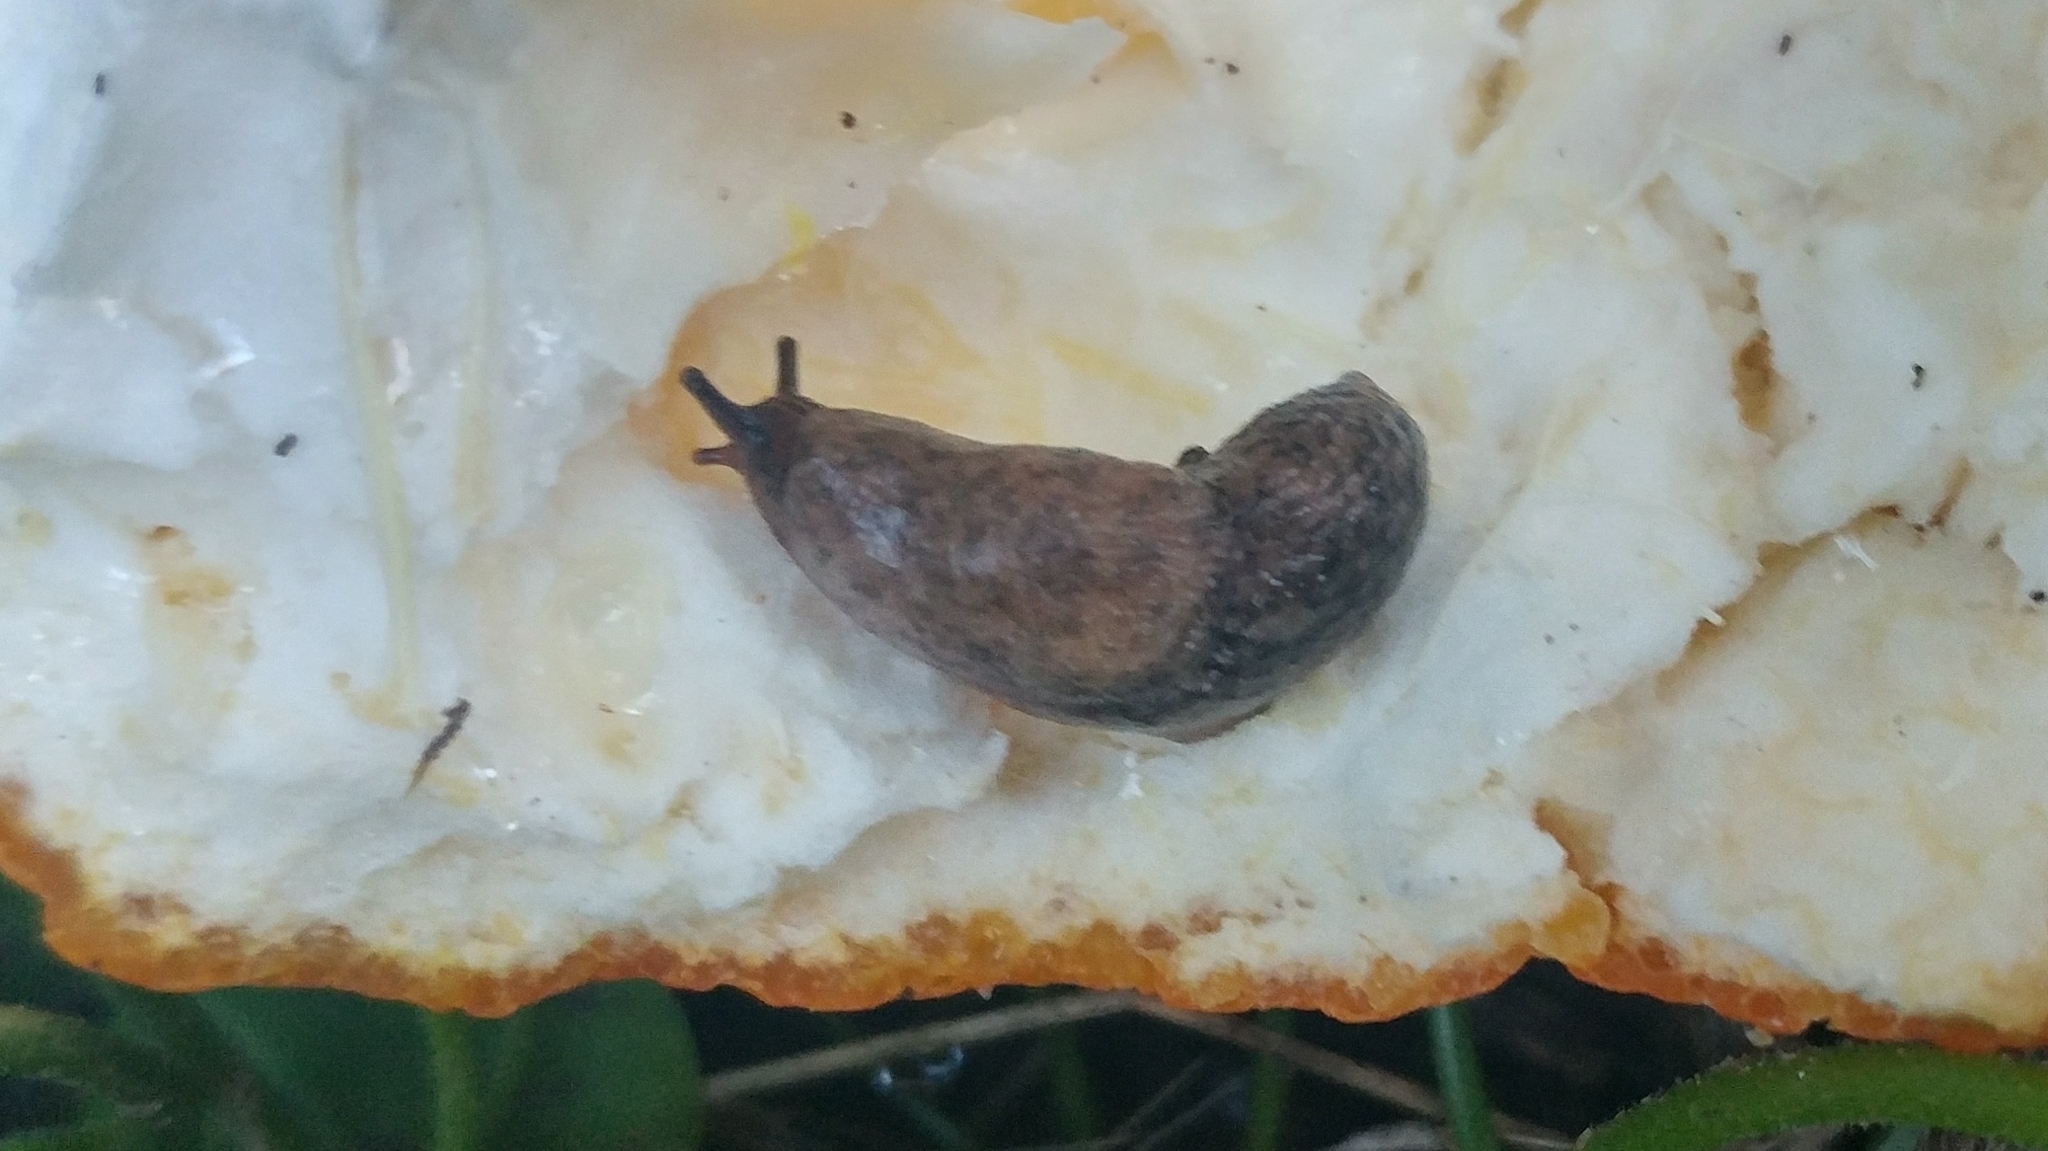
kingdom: Animalia
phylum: Mollusca
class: Gastropoda
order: Stylommatophora
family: Agriolimacidae
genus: Deroceras
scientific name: Deroceras reticulatum
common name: Gray field slug
